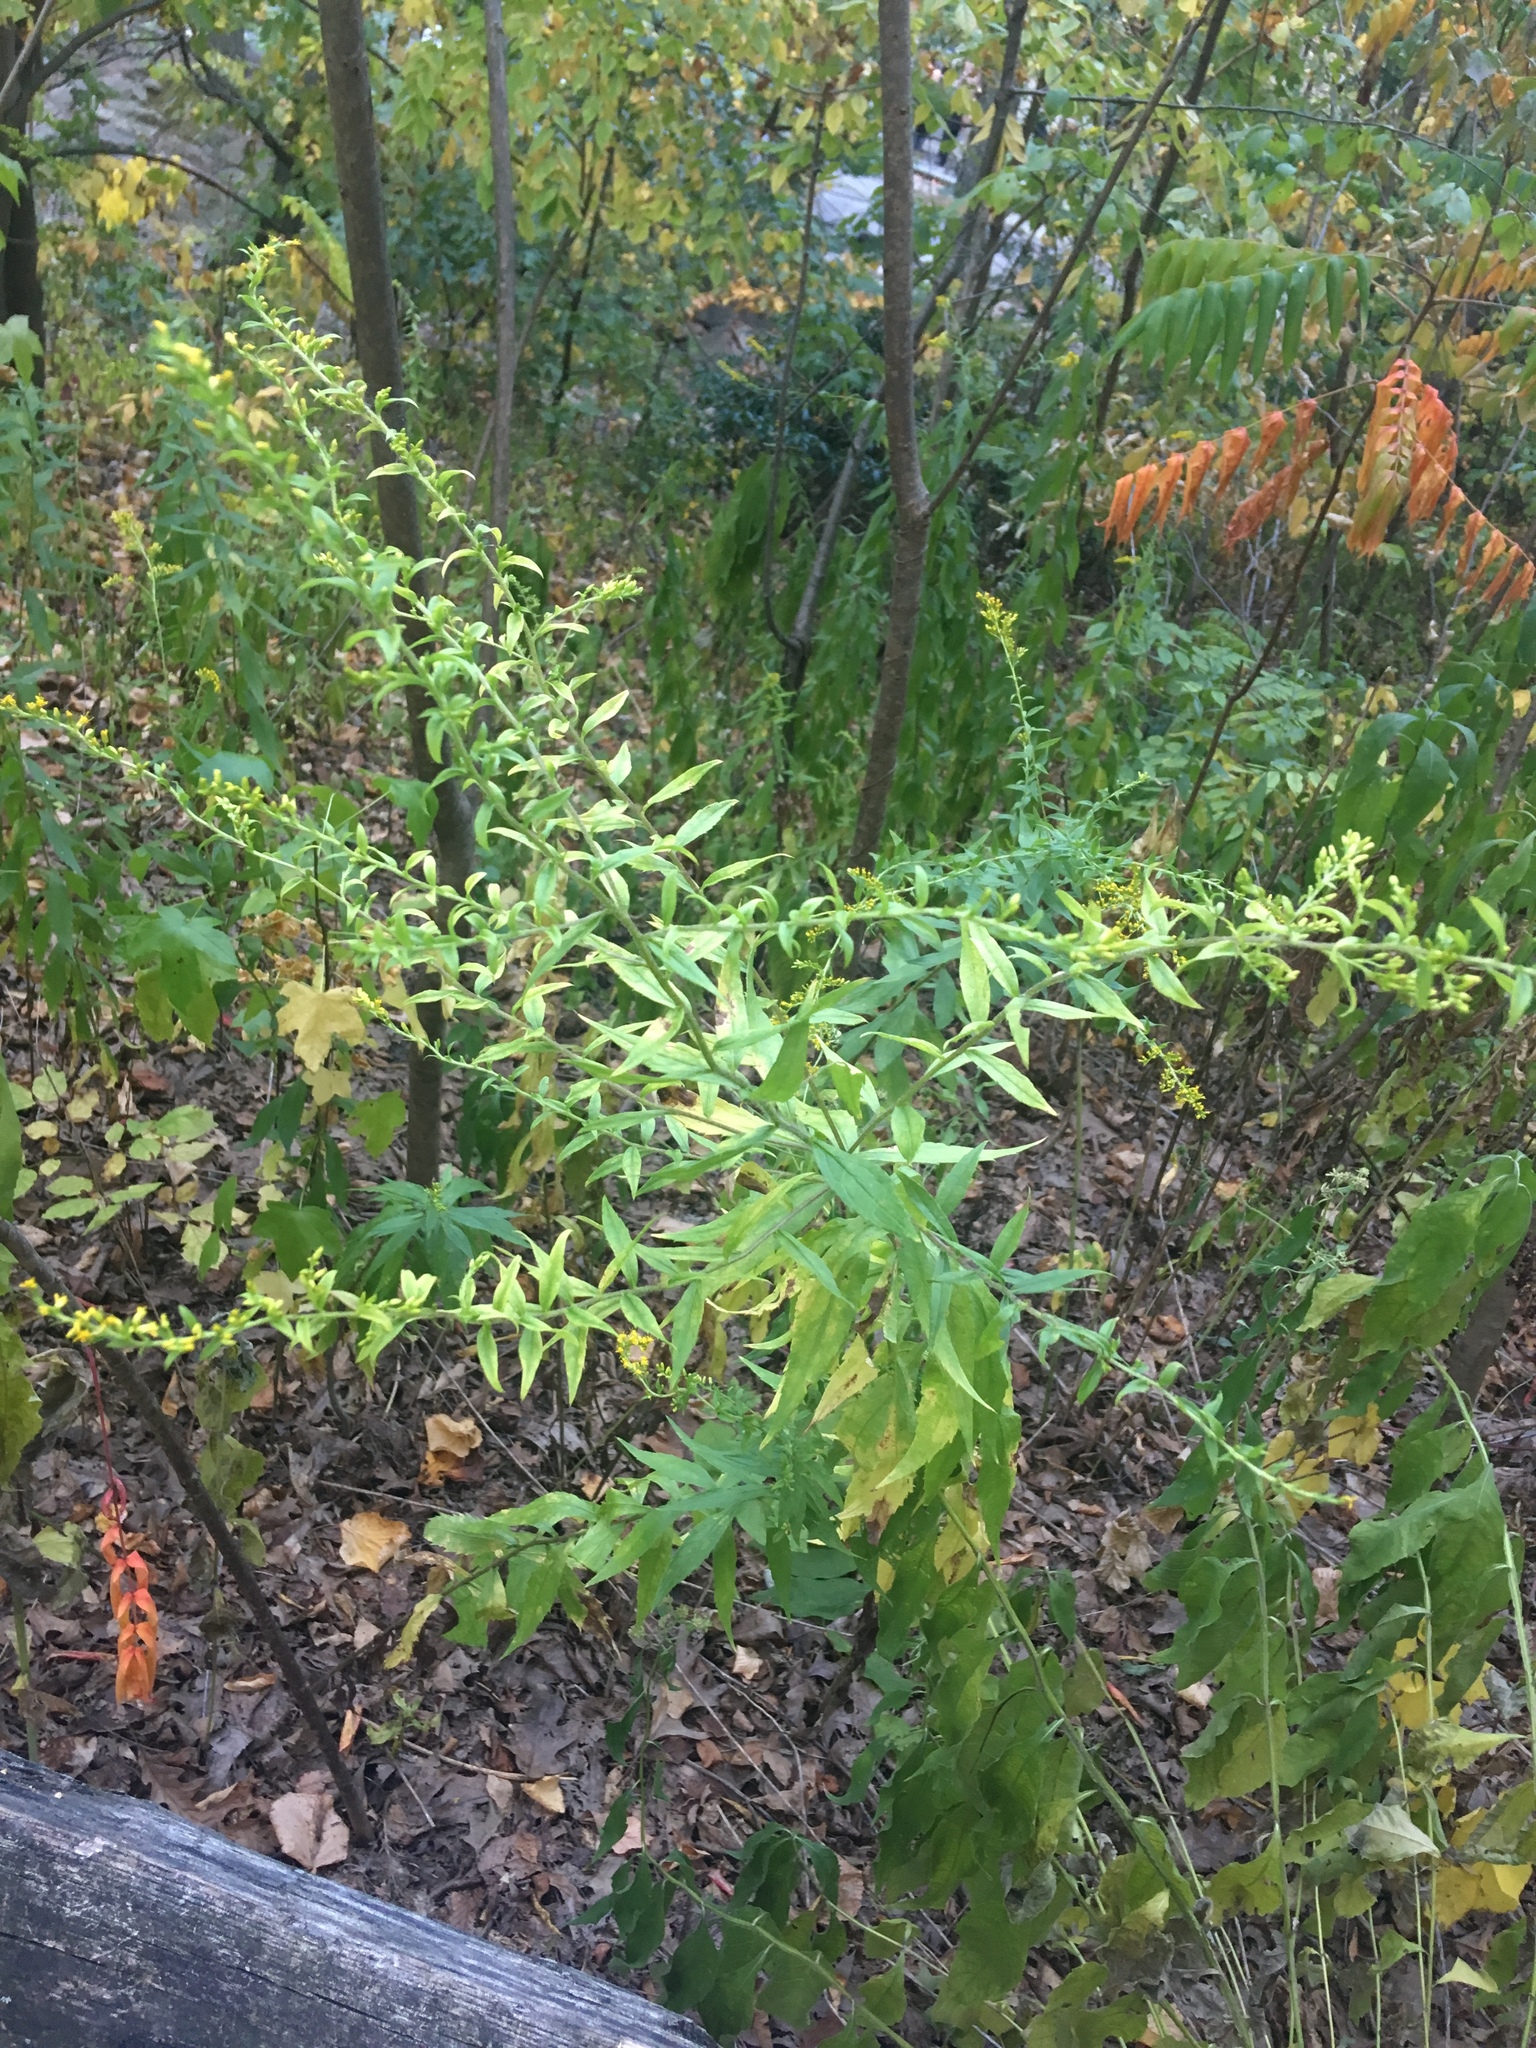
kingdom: Plantae
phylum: Tracheophyta
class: Magnoliopsida
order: Asterales
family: Asteraceae
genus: Solidago
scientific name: Solidago rugosa
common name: Rough-stemmed goldenrod
